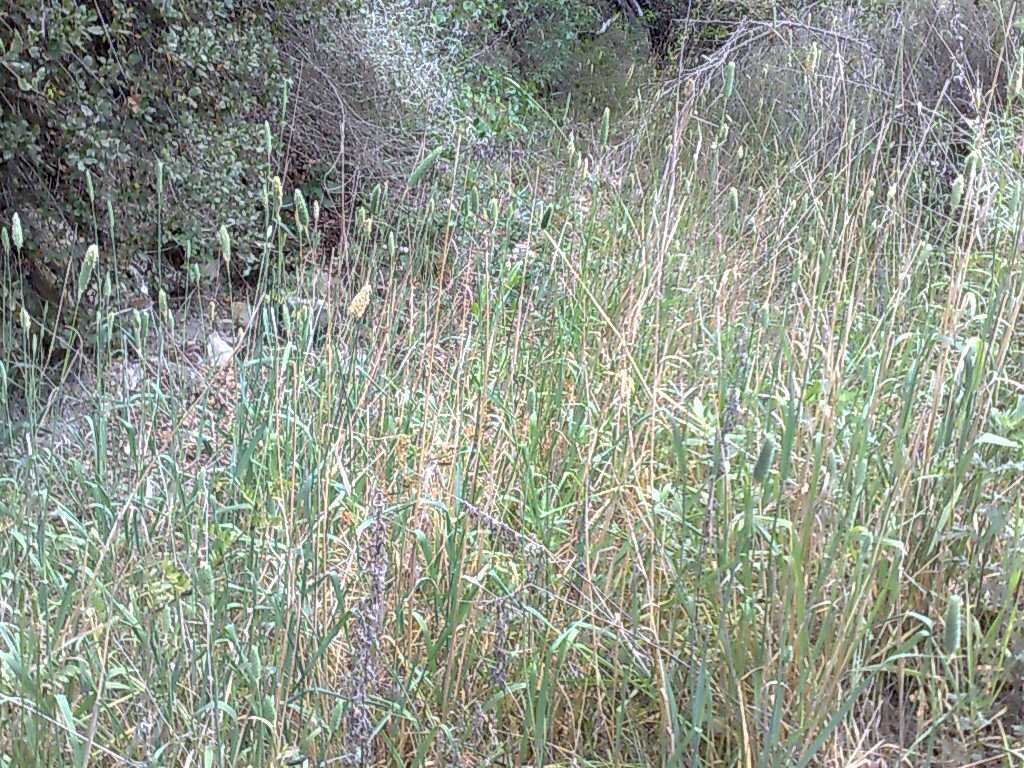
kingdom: Plantae
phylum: Tracheophyta
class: Liliopsida
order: Poales
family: Poaceae
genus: Phalaris
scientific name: Phalaris aquatica
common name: Bulbous canary-grass
